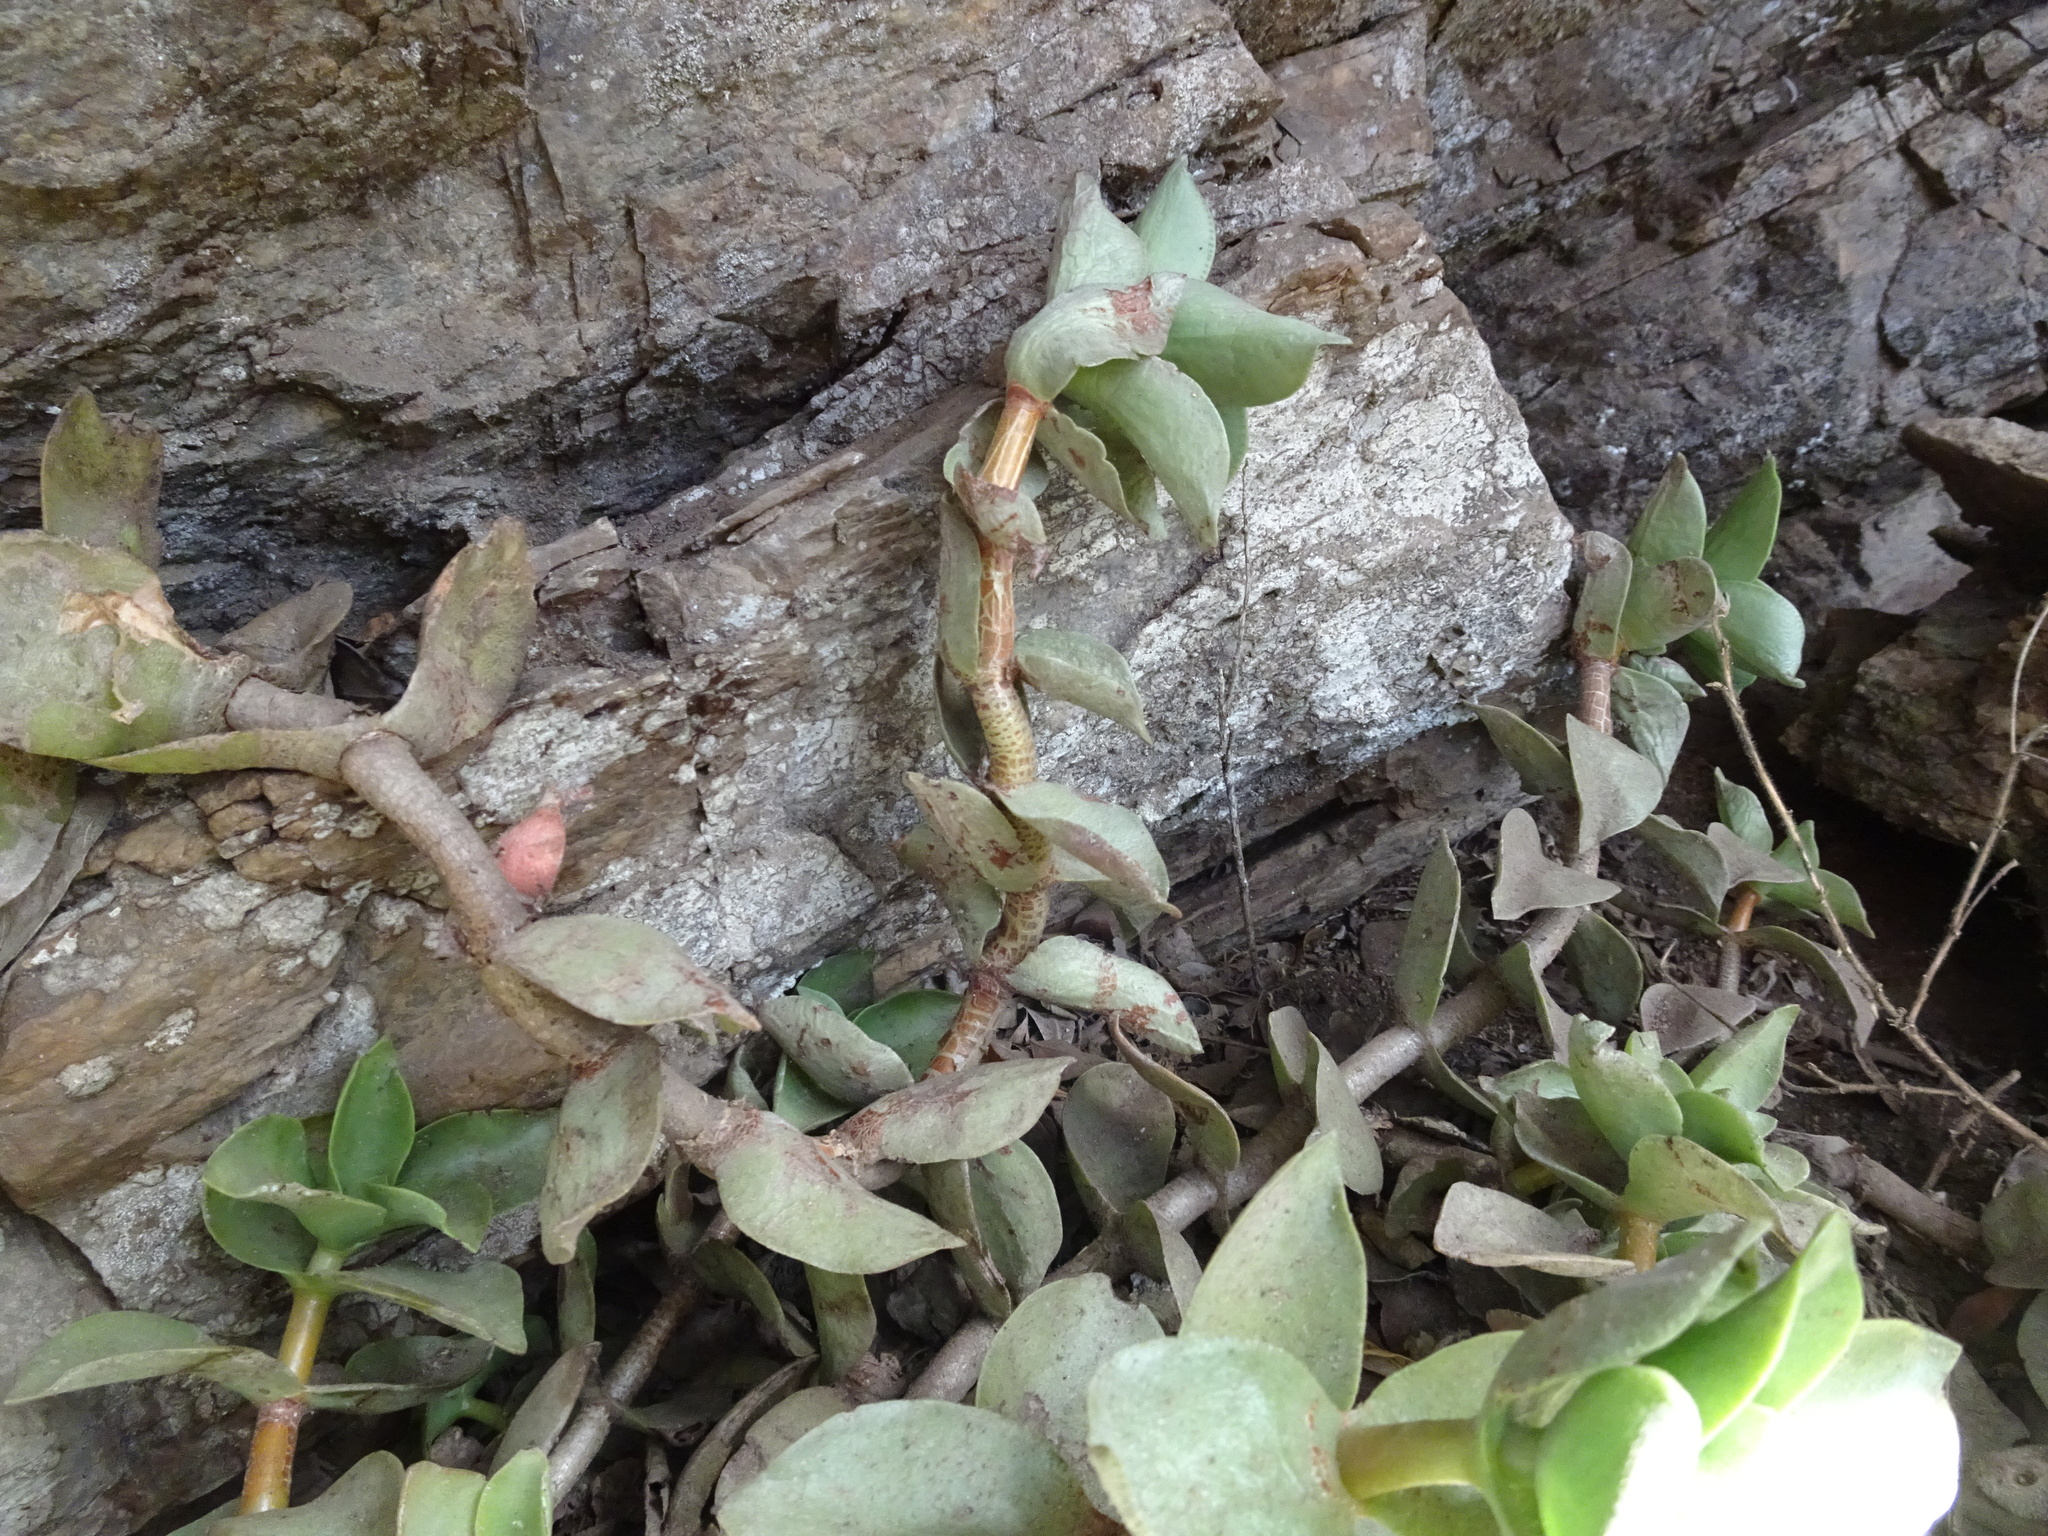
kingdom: Plantae
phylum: Tracheophyta
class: Magnoliopsida
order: Saxifragales
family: Crassulaceae
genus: Crassula
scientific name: Crassula lactea
